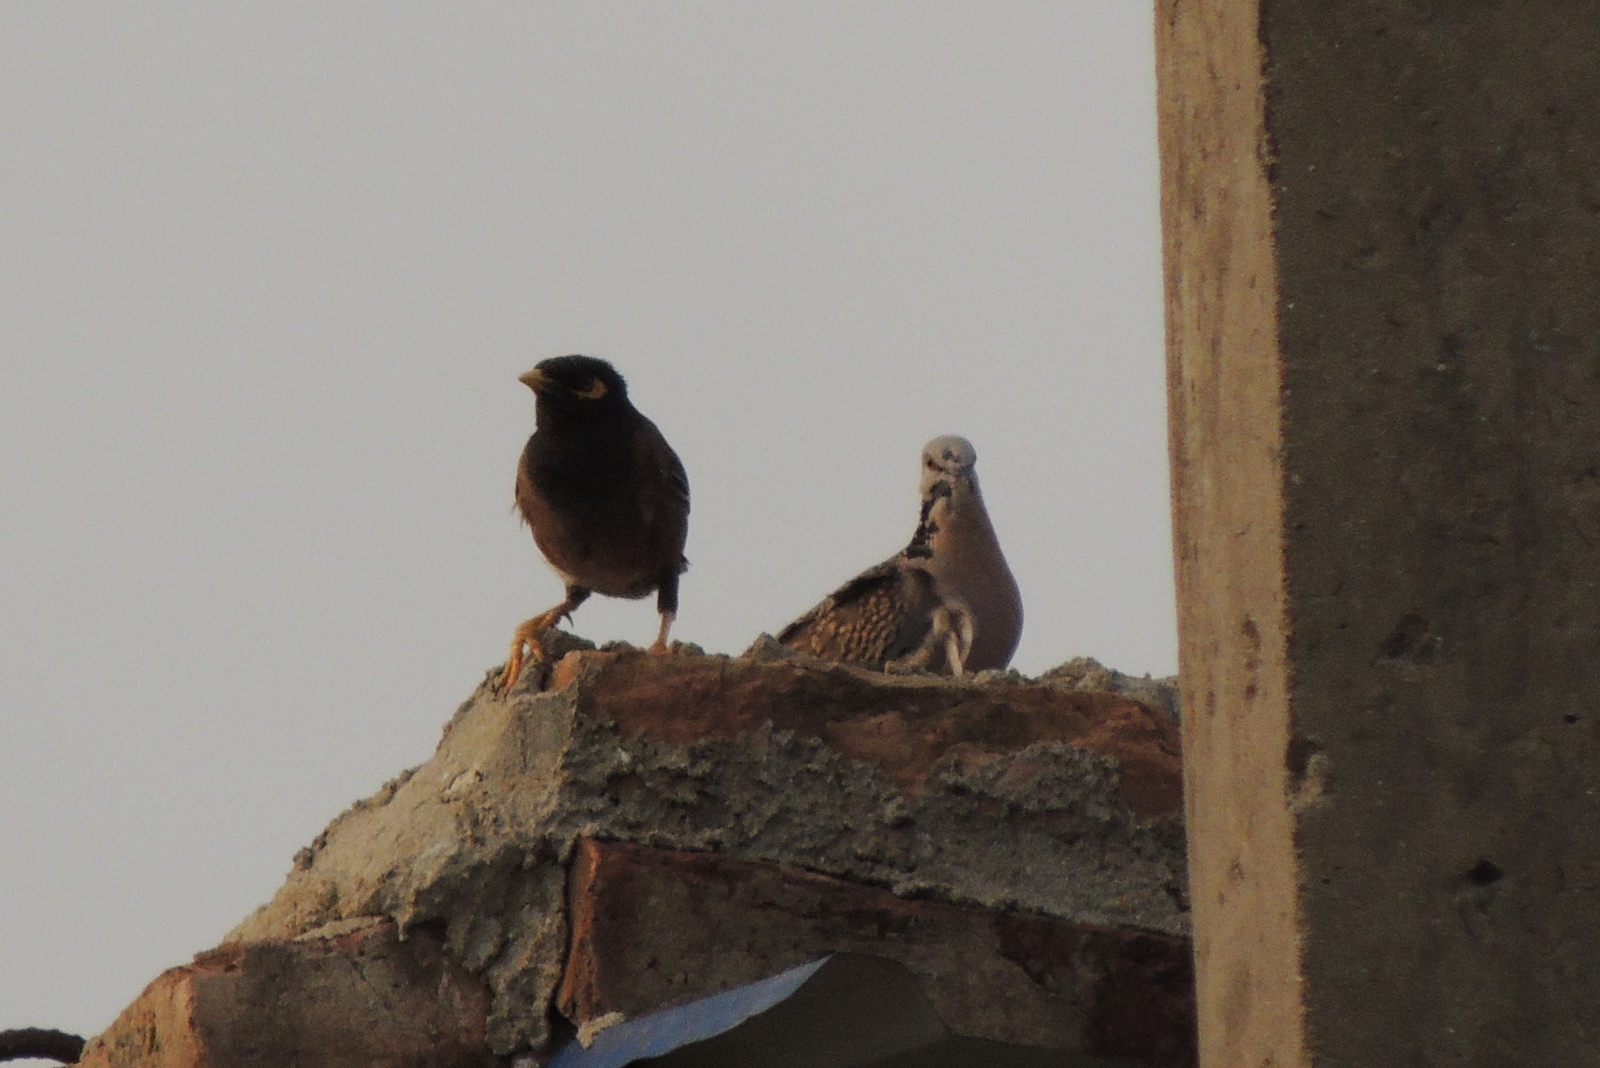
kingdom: Animalia
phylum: Chordata
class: Aves
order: Columbiformes
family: Columbidae
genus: Spilopelia
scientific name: Spilopelia chinensis
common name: Spotted dove
